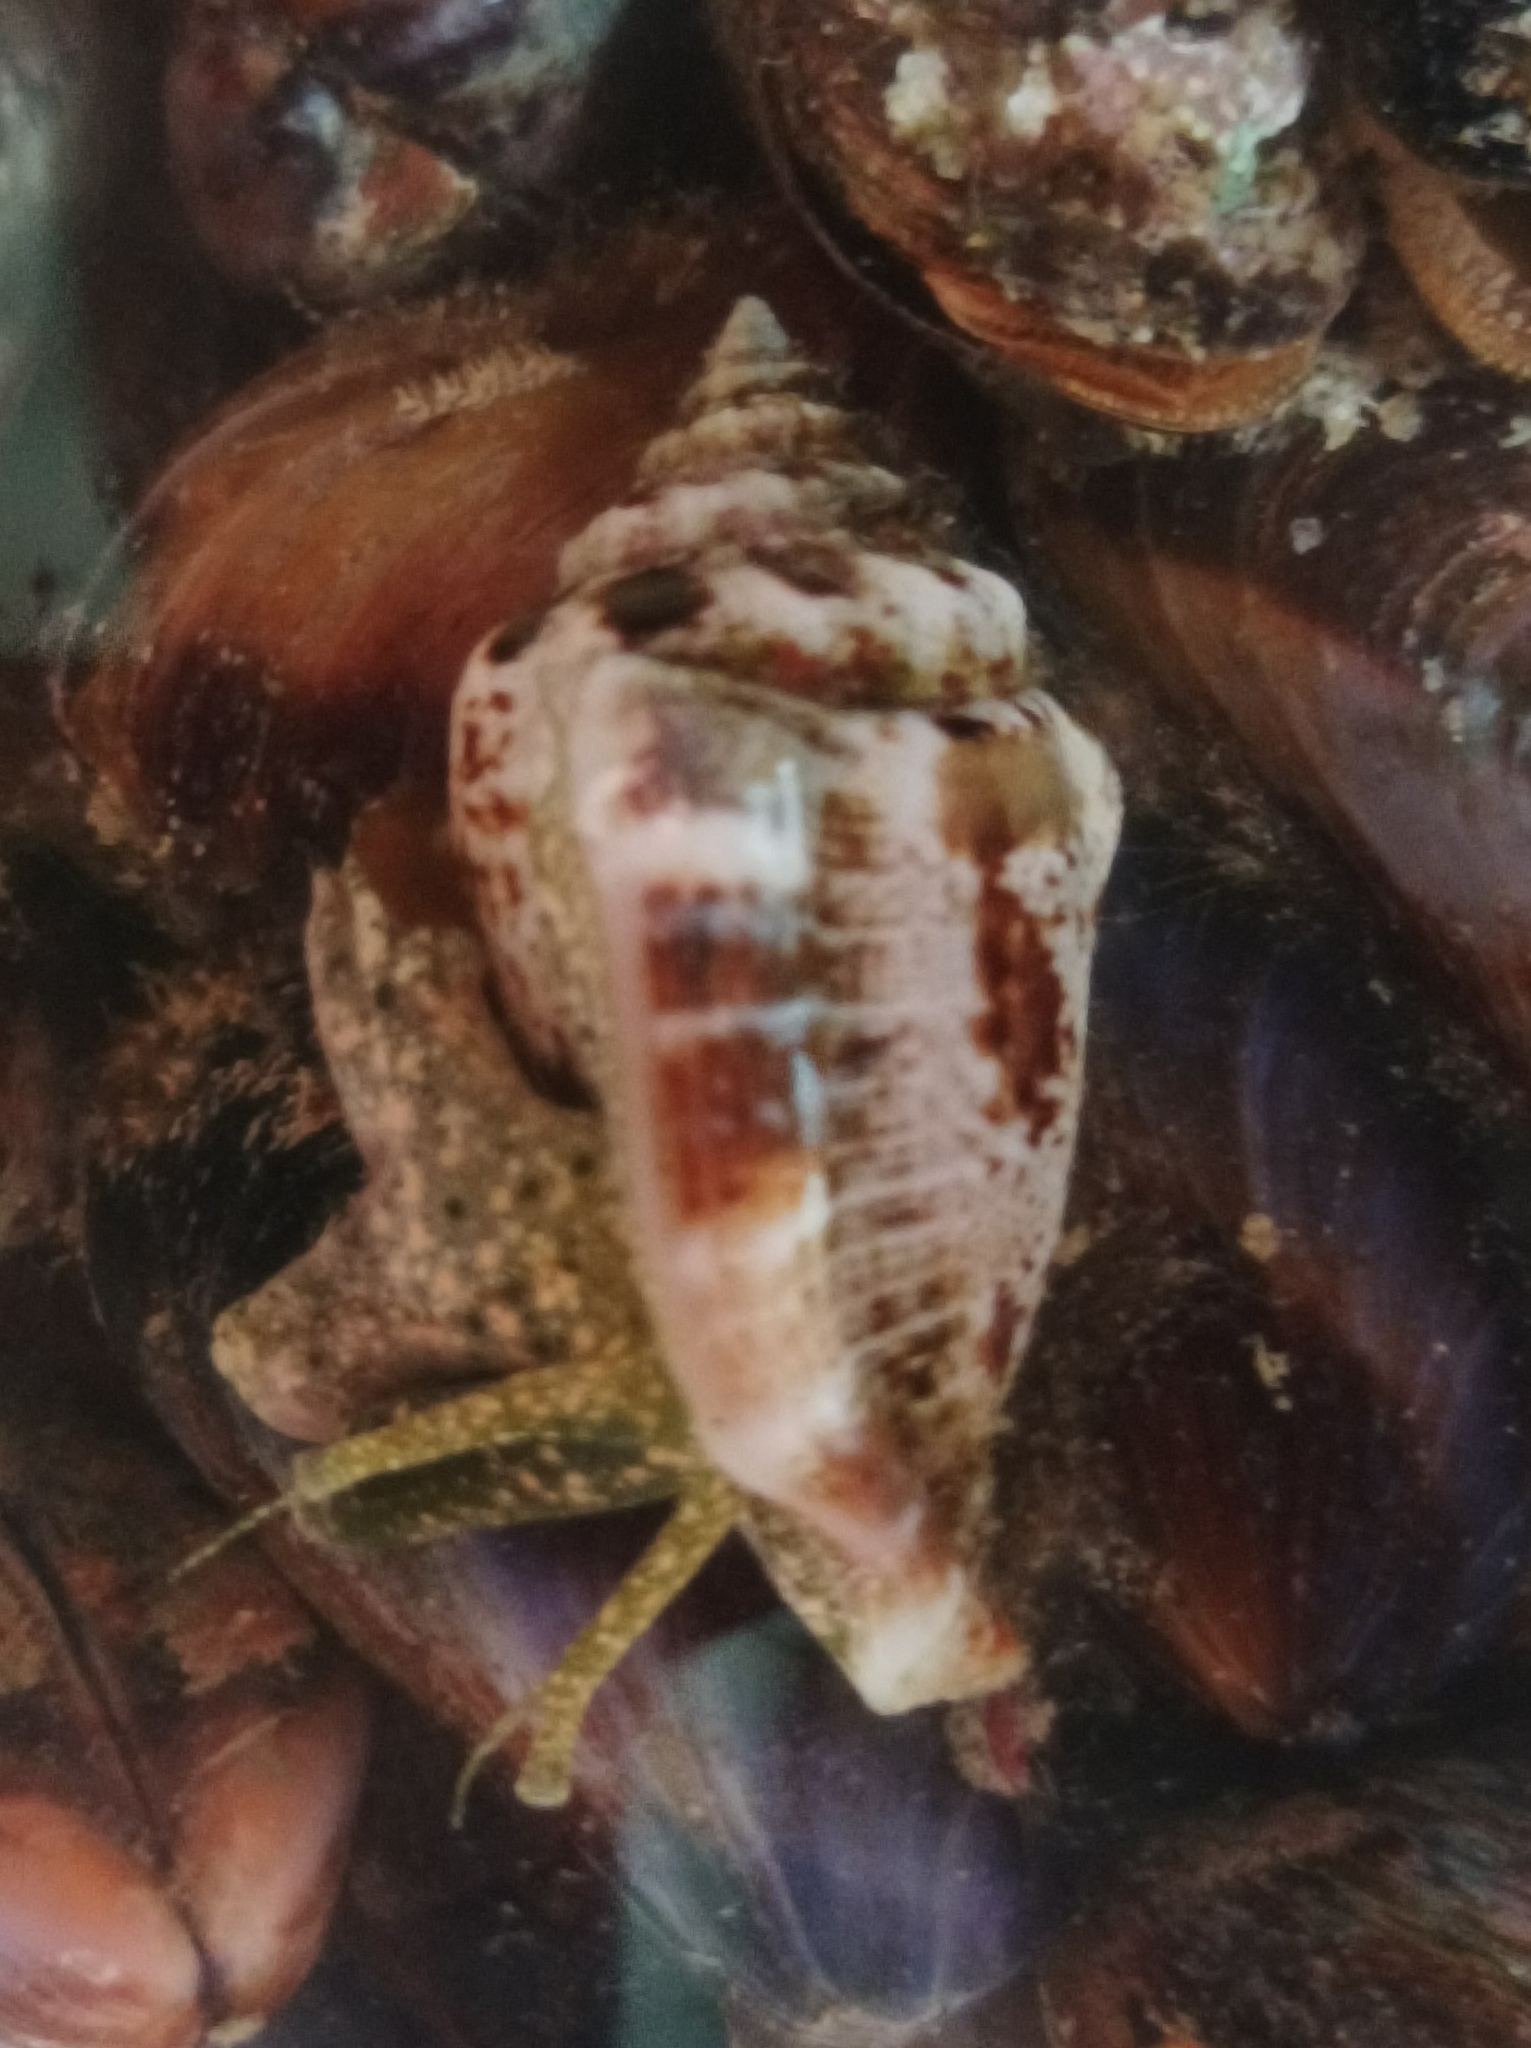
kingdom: Animalia
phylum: Mollusca
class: Gastropoda
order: Littorinimorpha
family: Strombidae
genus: Canarium
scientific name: Canarium mutabile
